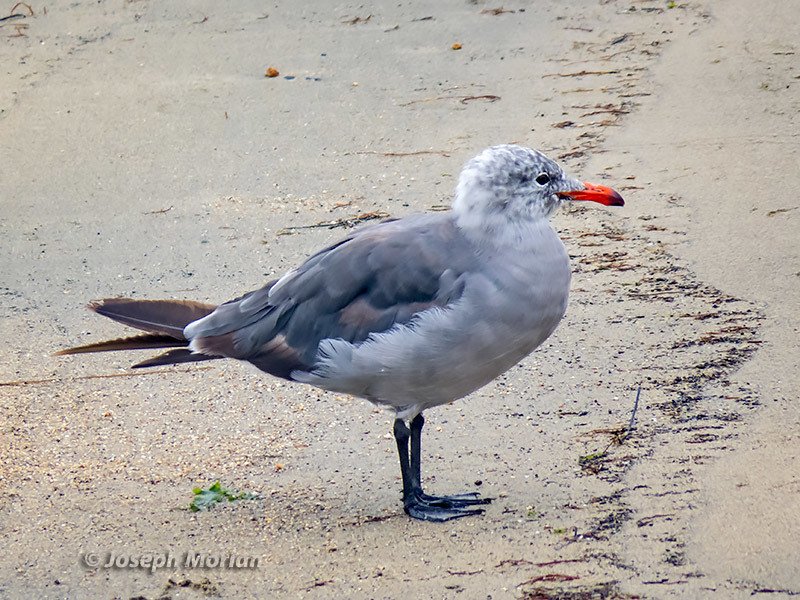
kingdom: Animalia
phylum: Chordata
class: Aves
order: Charadriiformes
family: Laridae
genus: Larus
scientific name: Larus heermanni
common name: Heermann's gull
